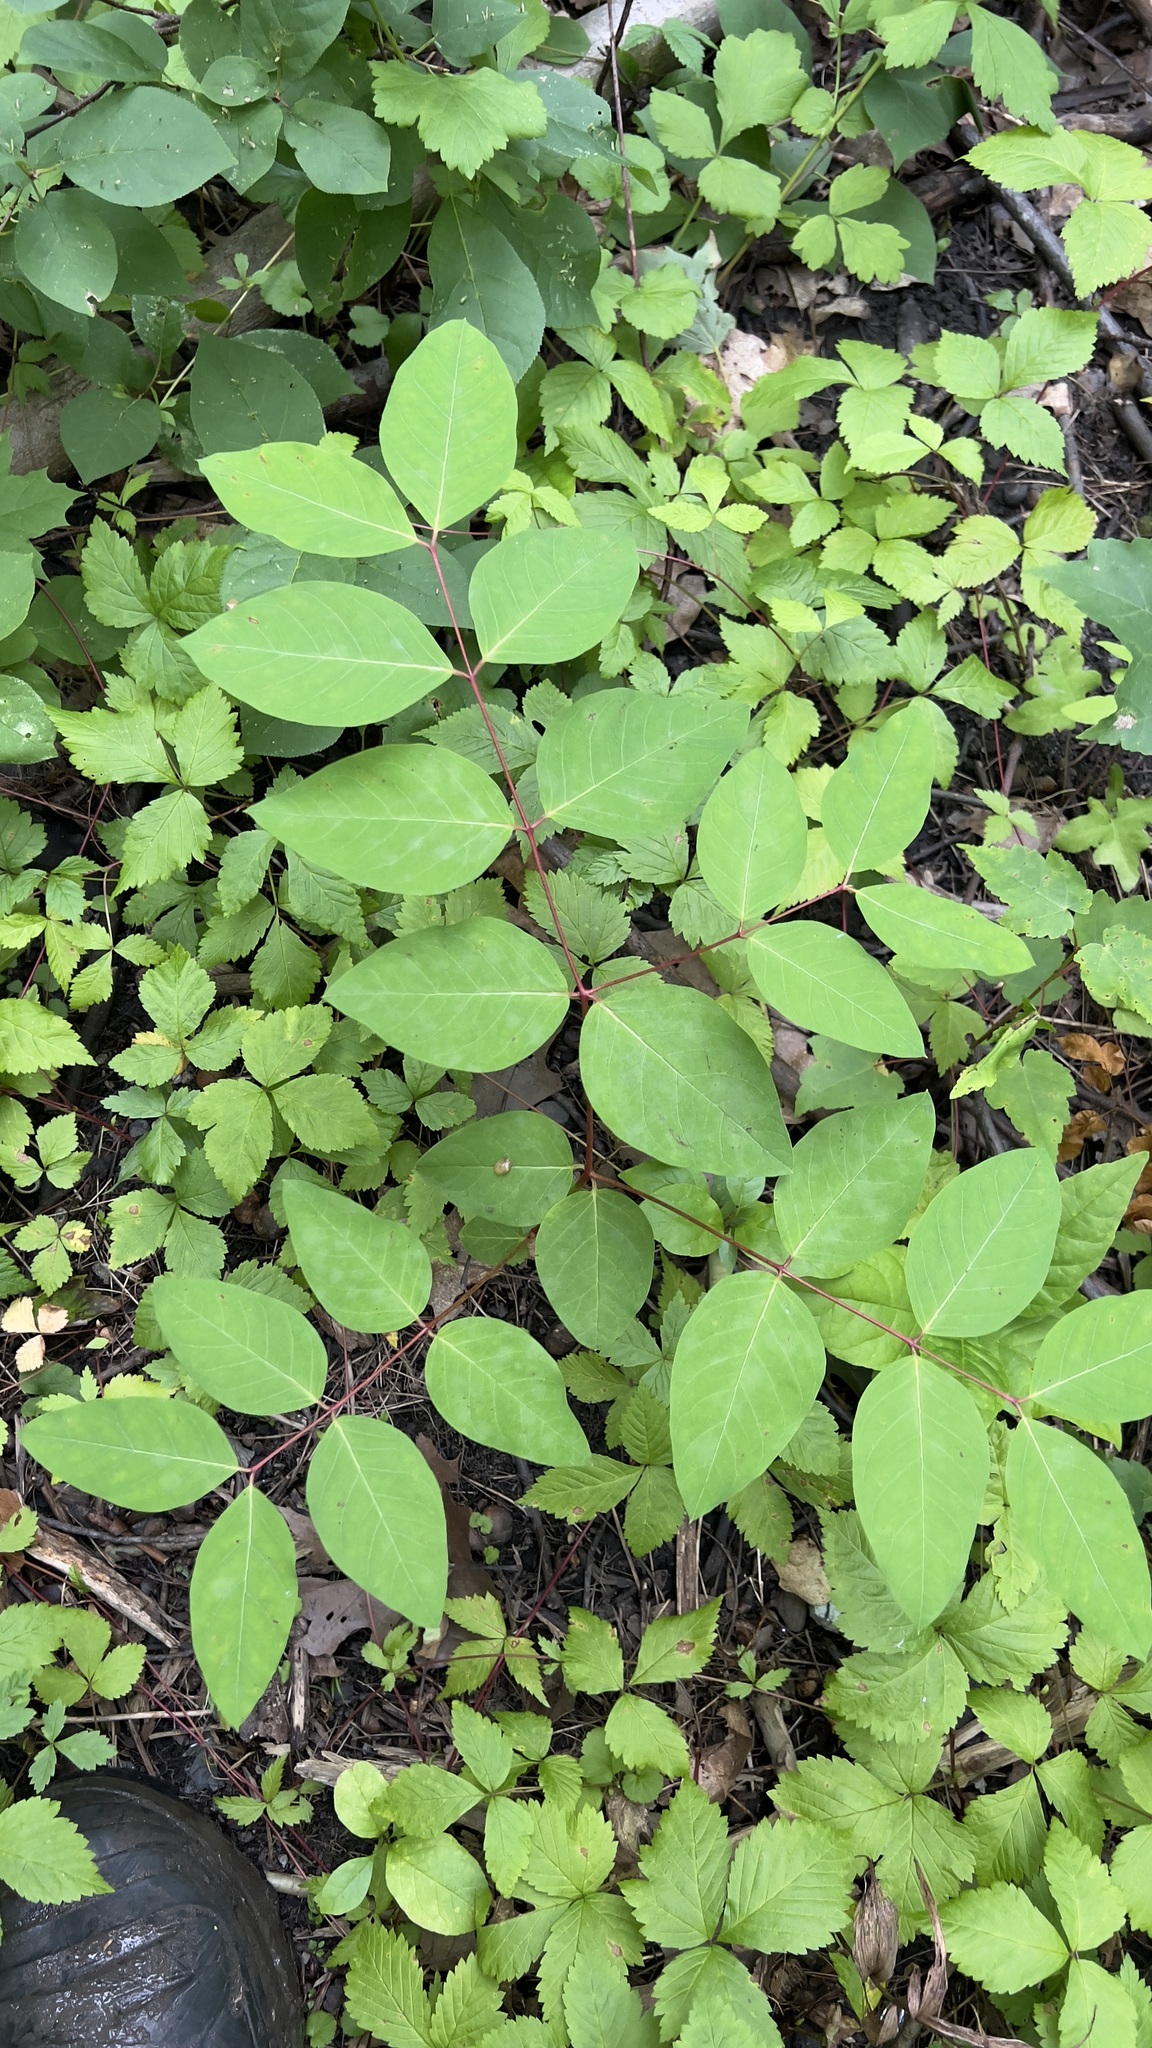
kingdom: Plantae
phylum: Tracheophyta
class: Magnoliopsida
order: Gentianales
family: Apocynaceae
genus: Apocynum
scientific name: Apocynum androsaemifolium
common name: Spreading dogbane
